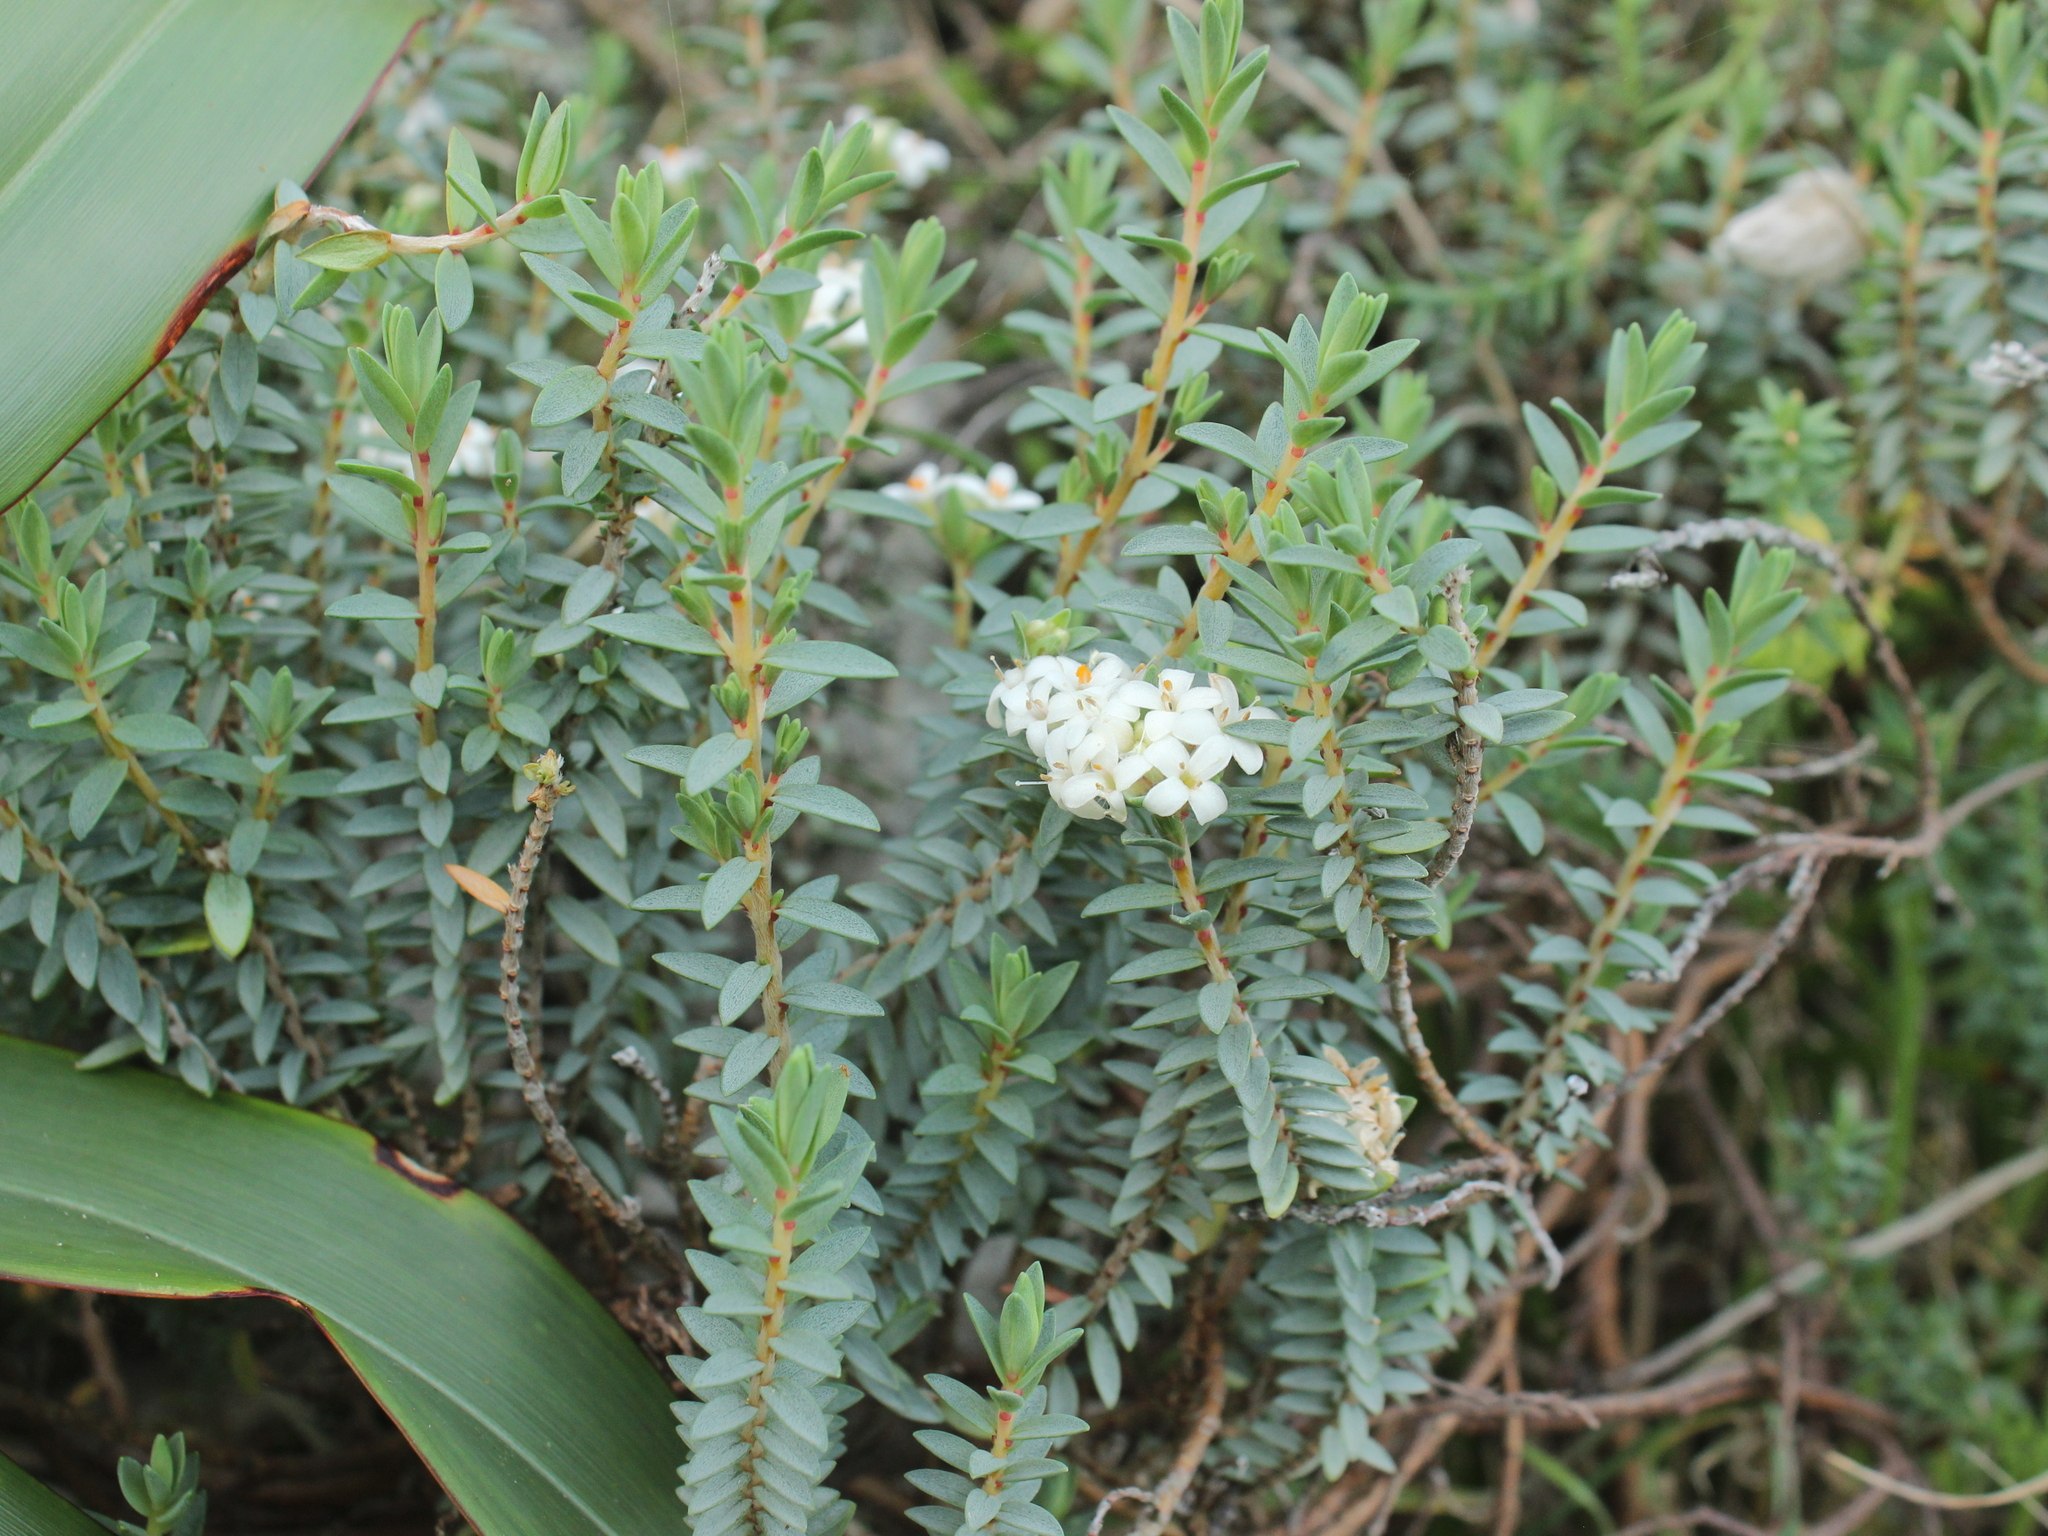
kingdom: Plantae
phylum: Tracheophyta
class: Magnoliopsida
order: Malvales
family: Thymelaeaceae
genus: Pimelea
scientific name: Pimelea prostrata
